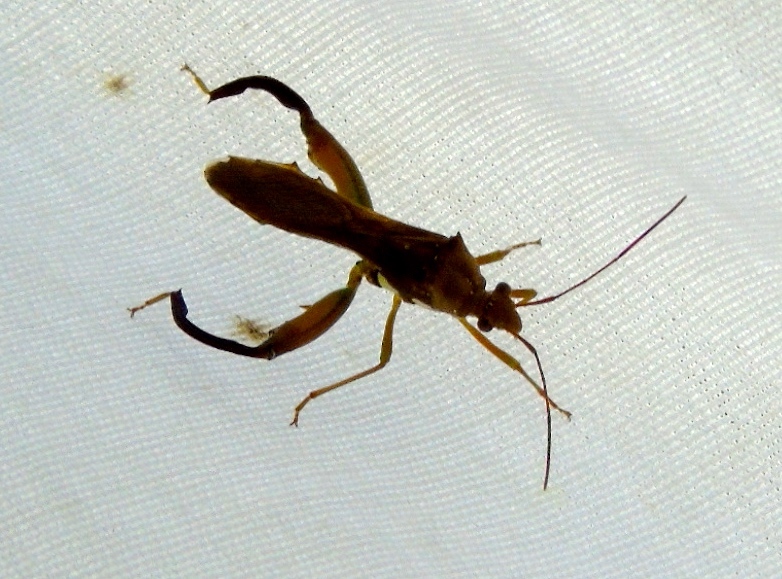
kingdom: Animalia
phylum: Arthropoda
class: Insecta
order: Hemiptera
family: Alydidae
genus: Hyalymenus
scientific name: Hyalymenus
